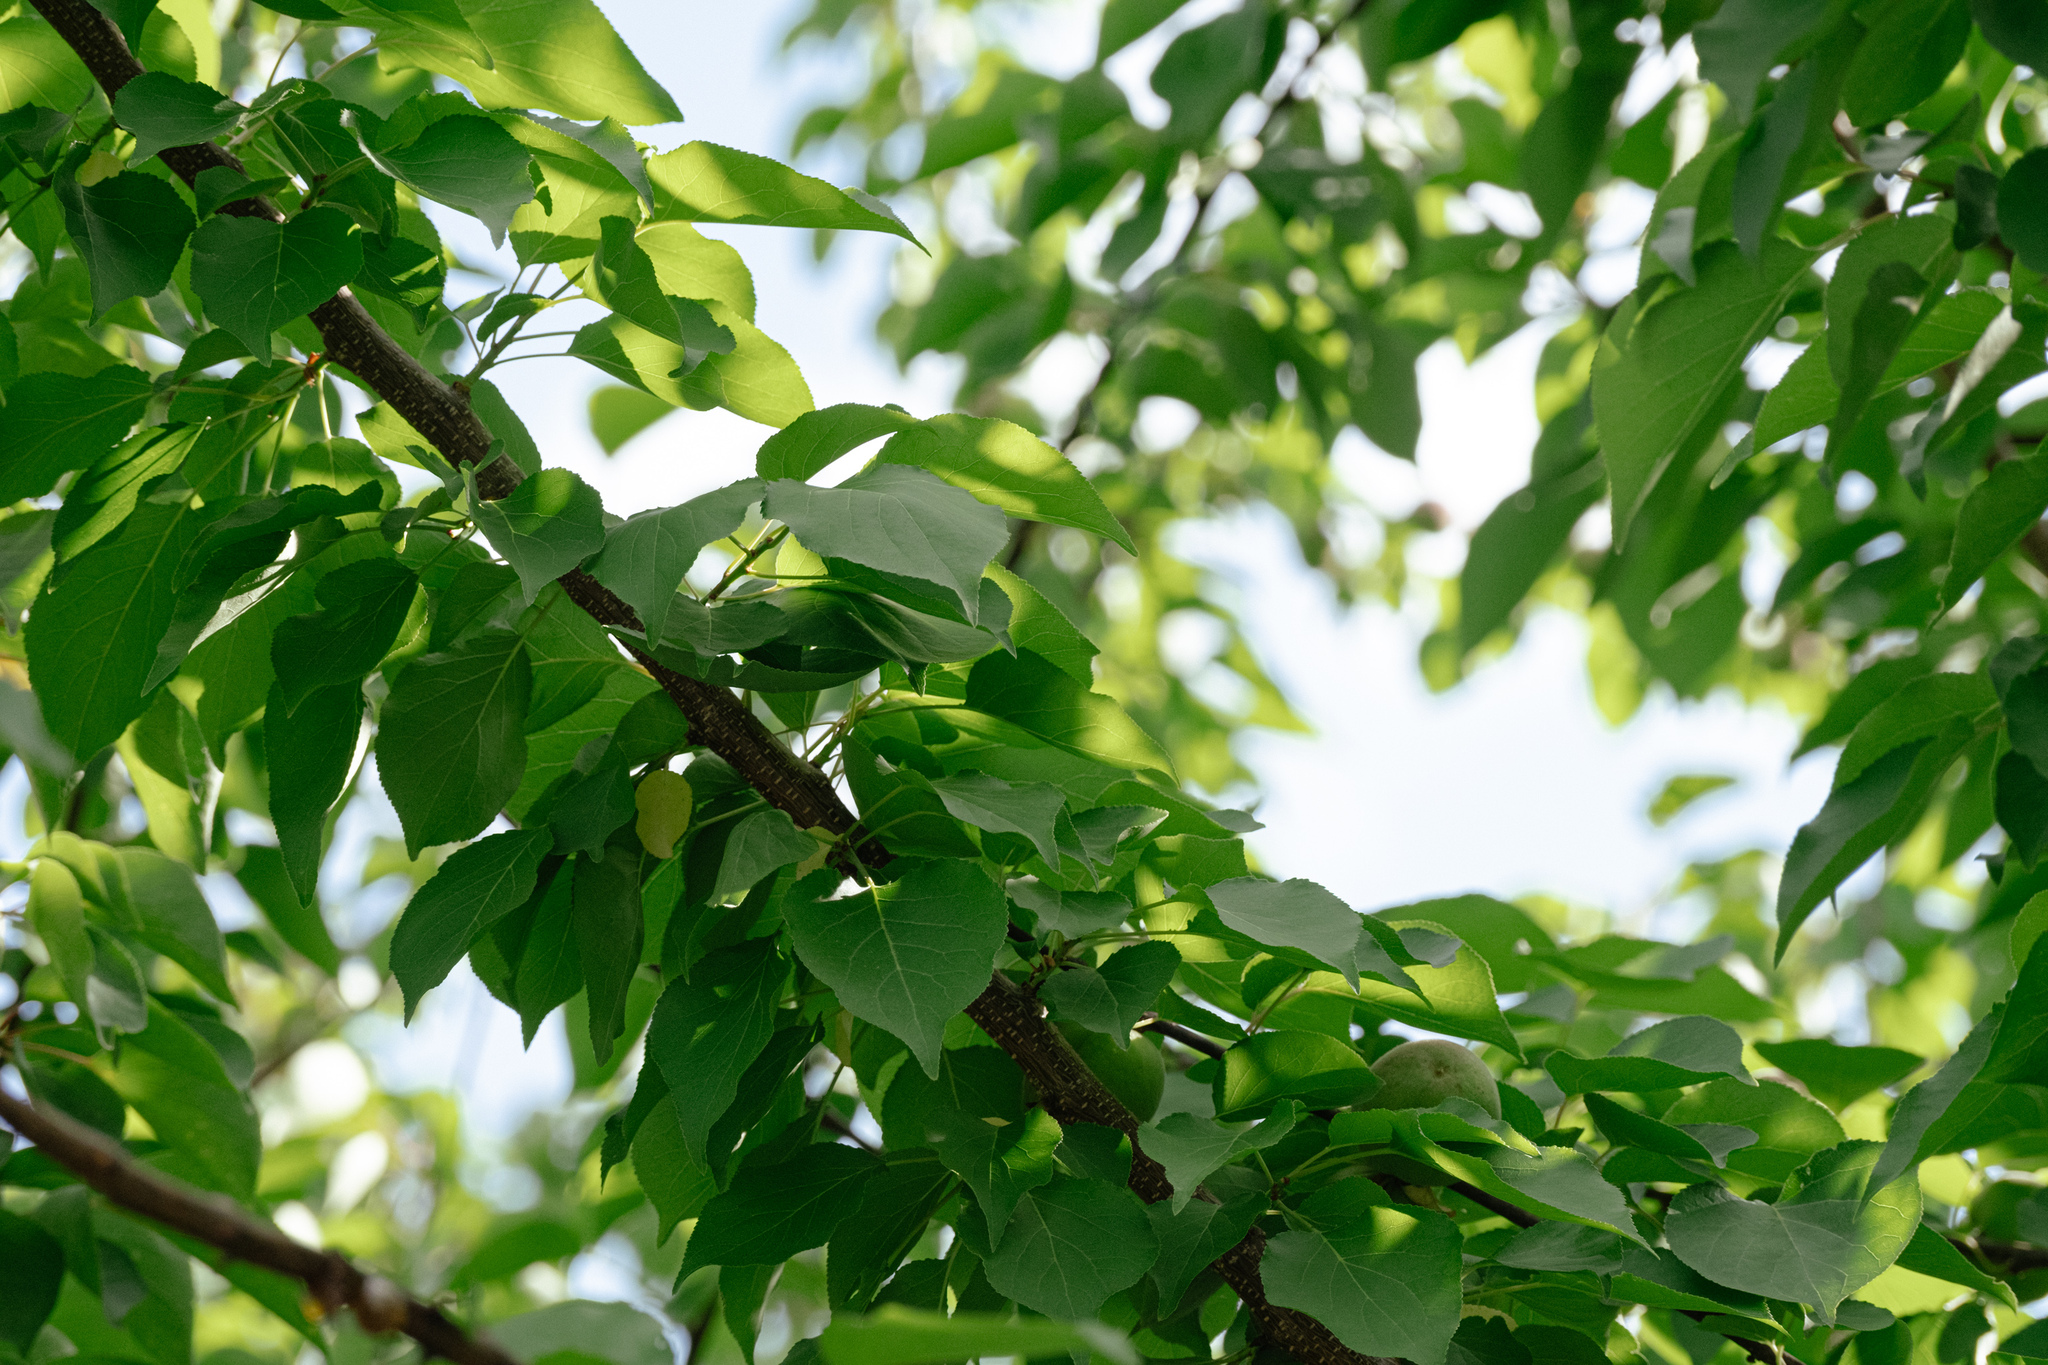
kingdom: Plantae
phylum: Tracheophyta
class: Magnoliopsida
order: Rosales
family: Rosaceae
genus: Prunus
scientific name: Prunus armeniaca
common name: Apricot
